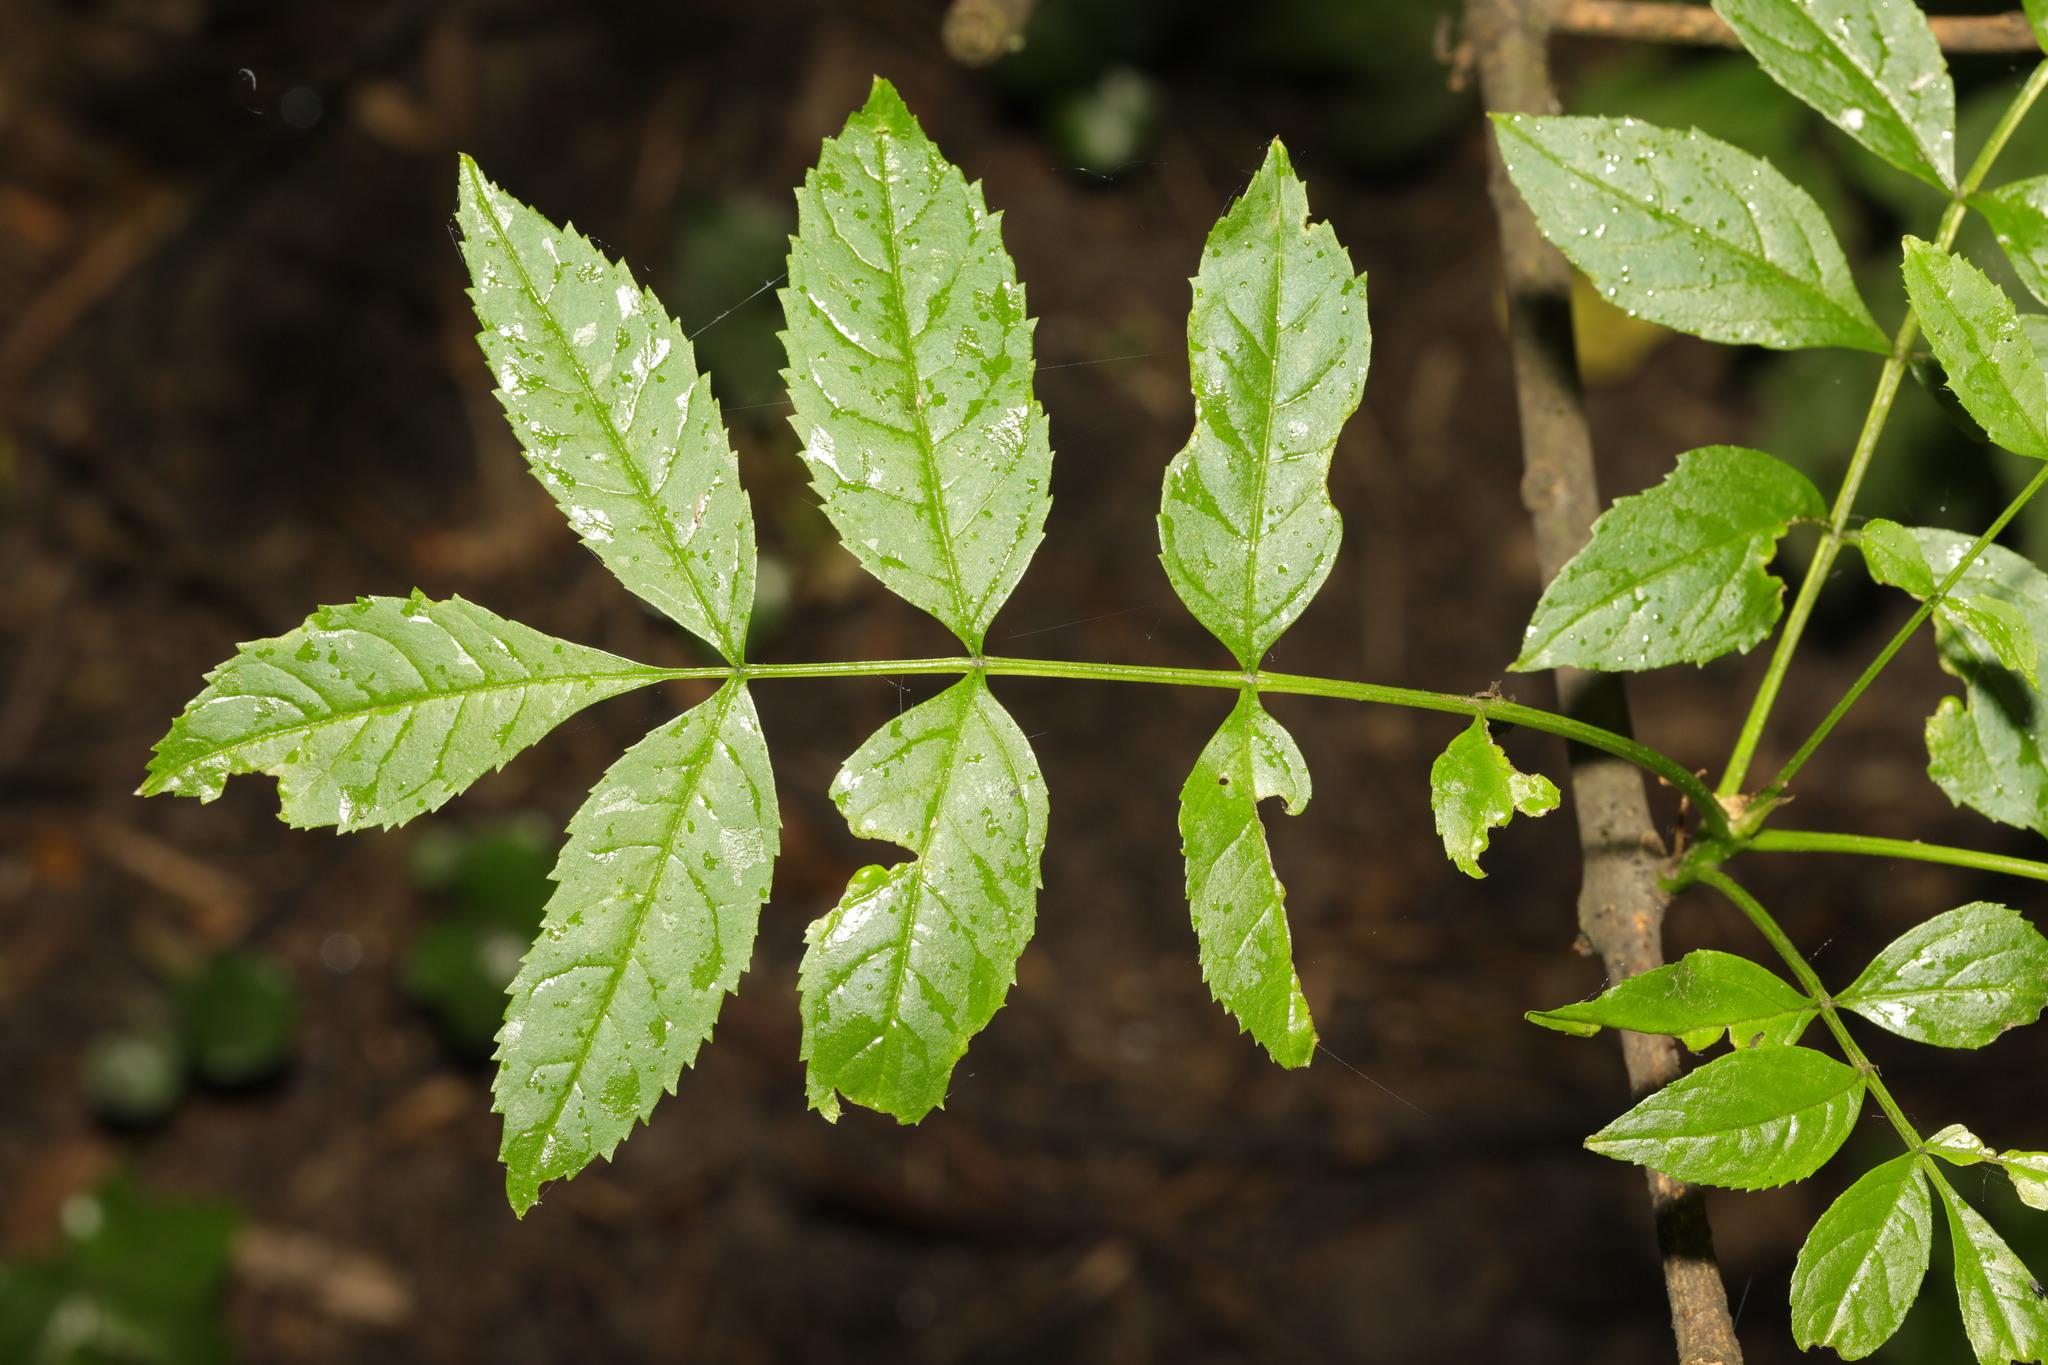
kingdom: Plantae
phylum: Tracheophyta
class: Magnoliopsida
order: Lamiales
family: Oleaceae
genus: Fraxinus
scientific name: Fraxinus excelsior
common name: European ash
